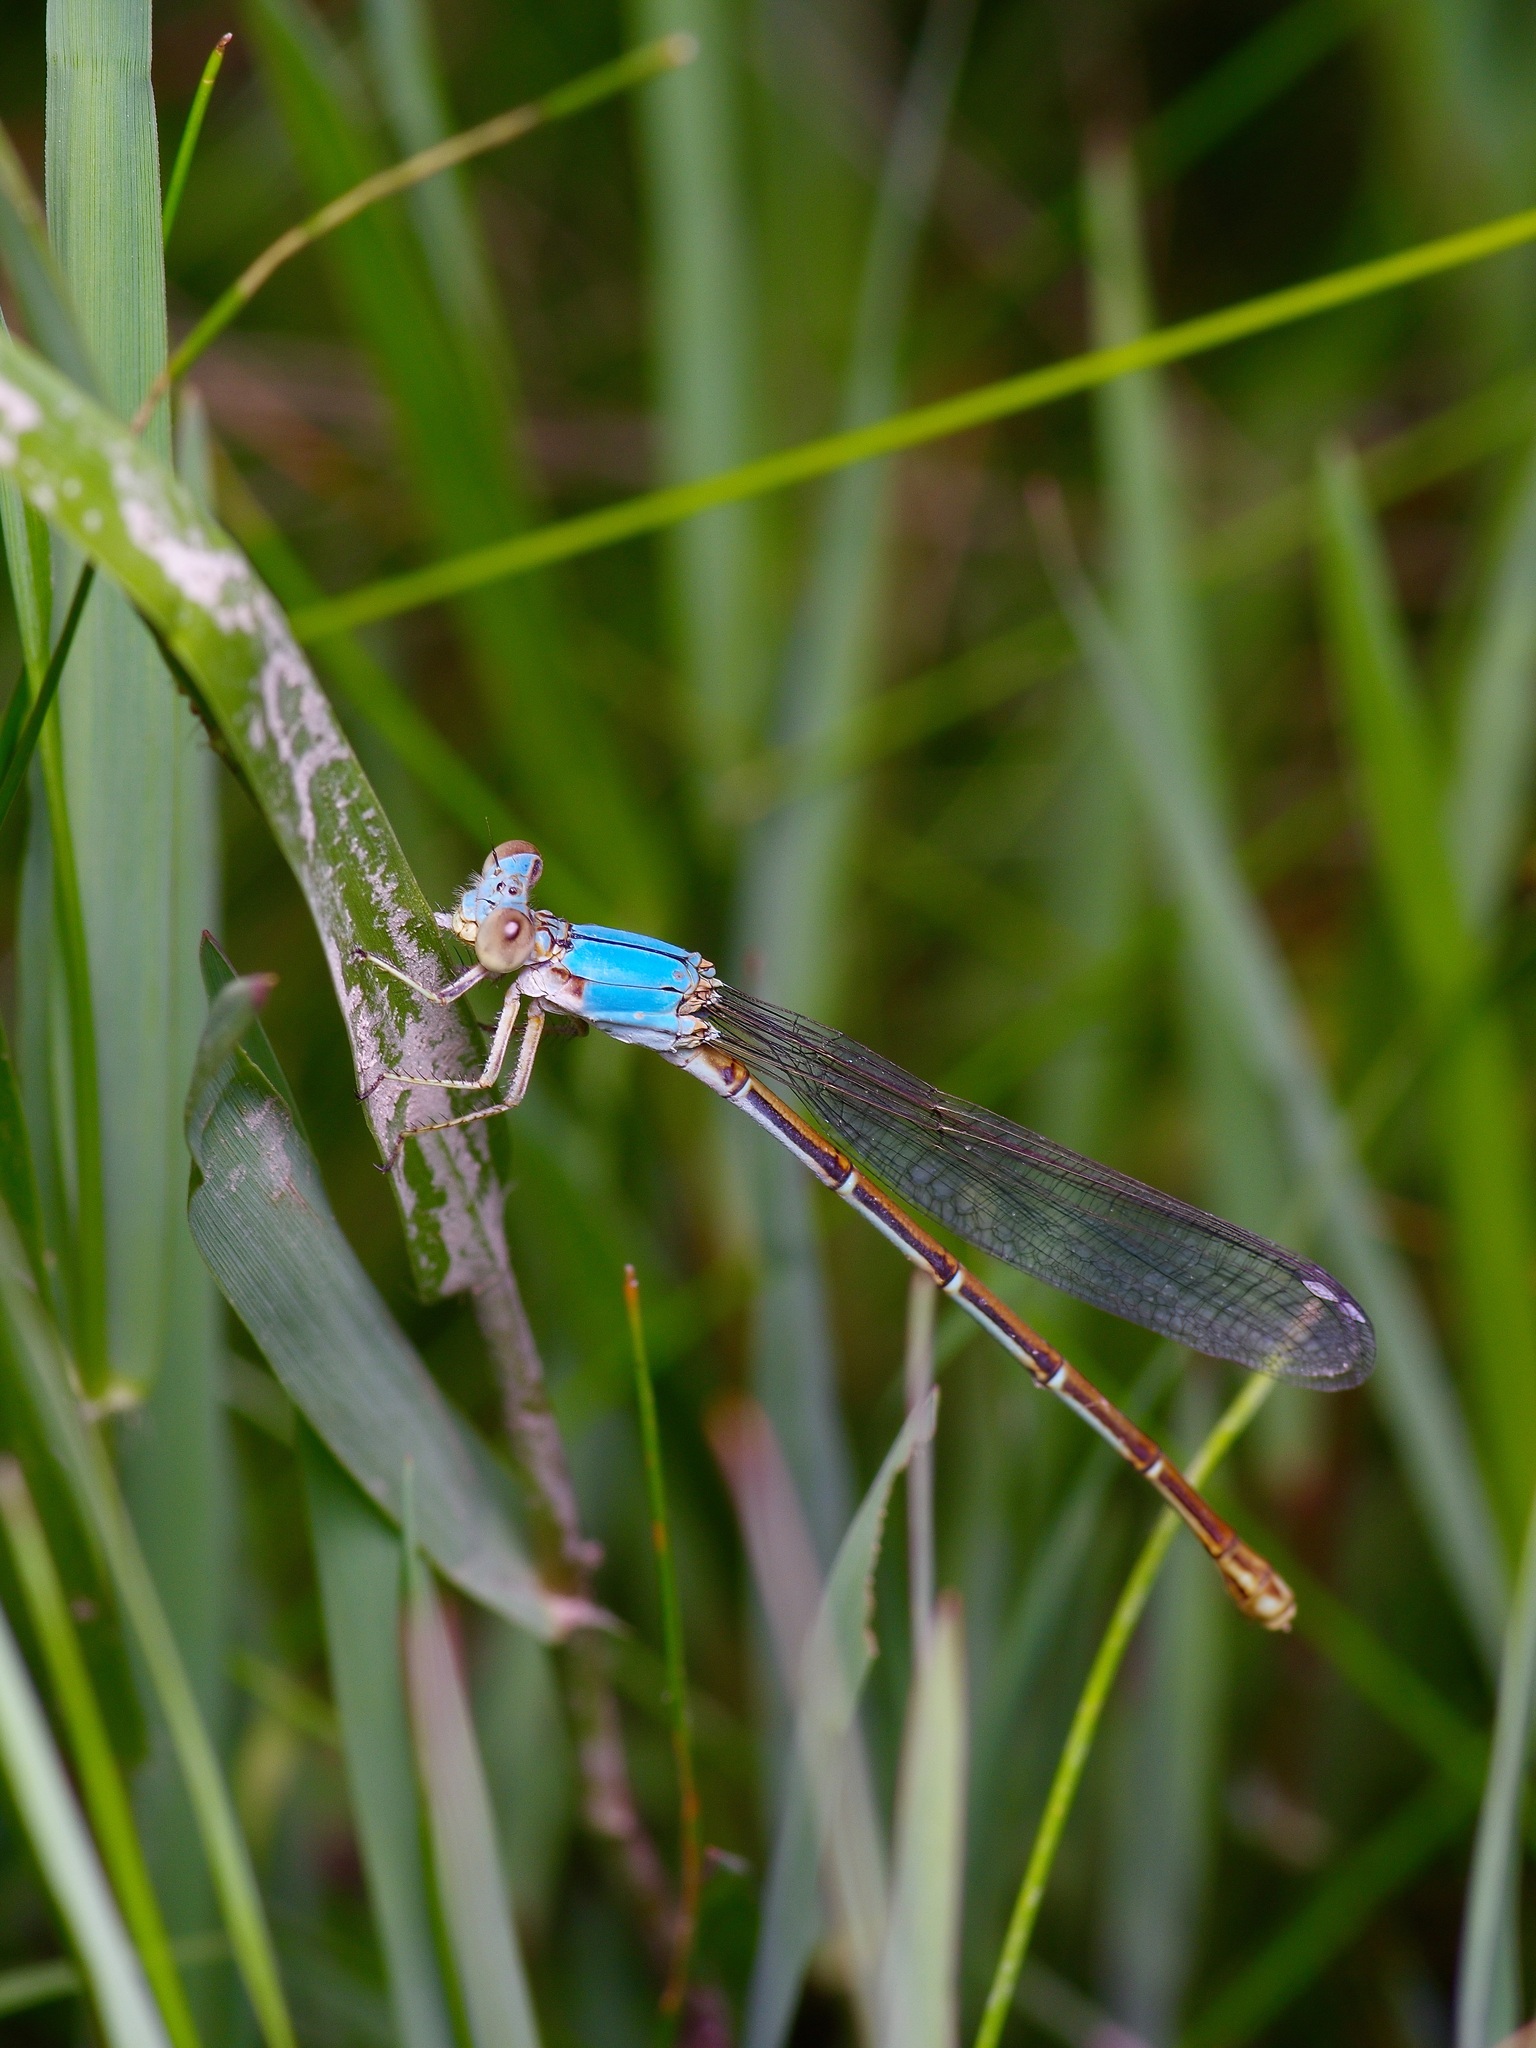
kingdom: Animalia
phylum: Arthropoda
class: Insecta
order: Odonata
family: Coenagrionidae
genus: Argia
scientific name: Argia moesta
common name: Powdered dancer
